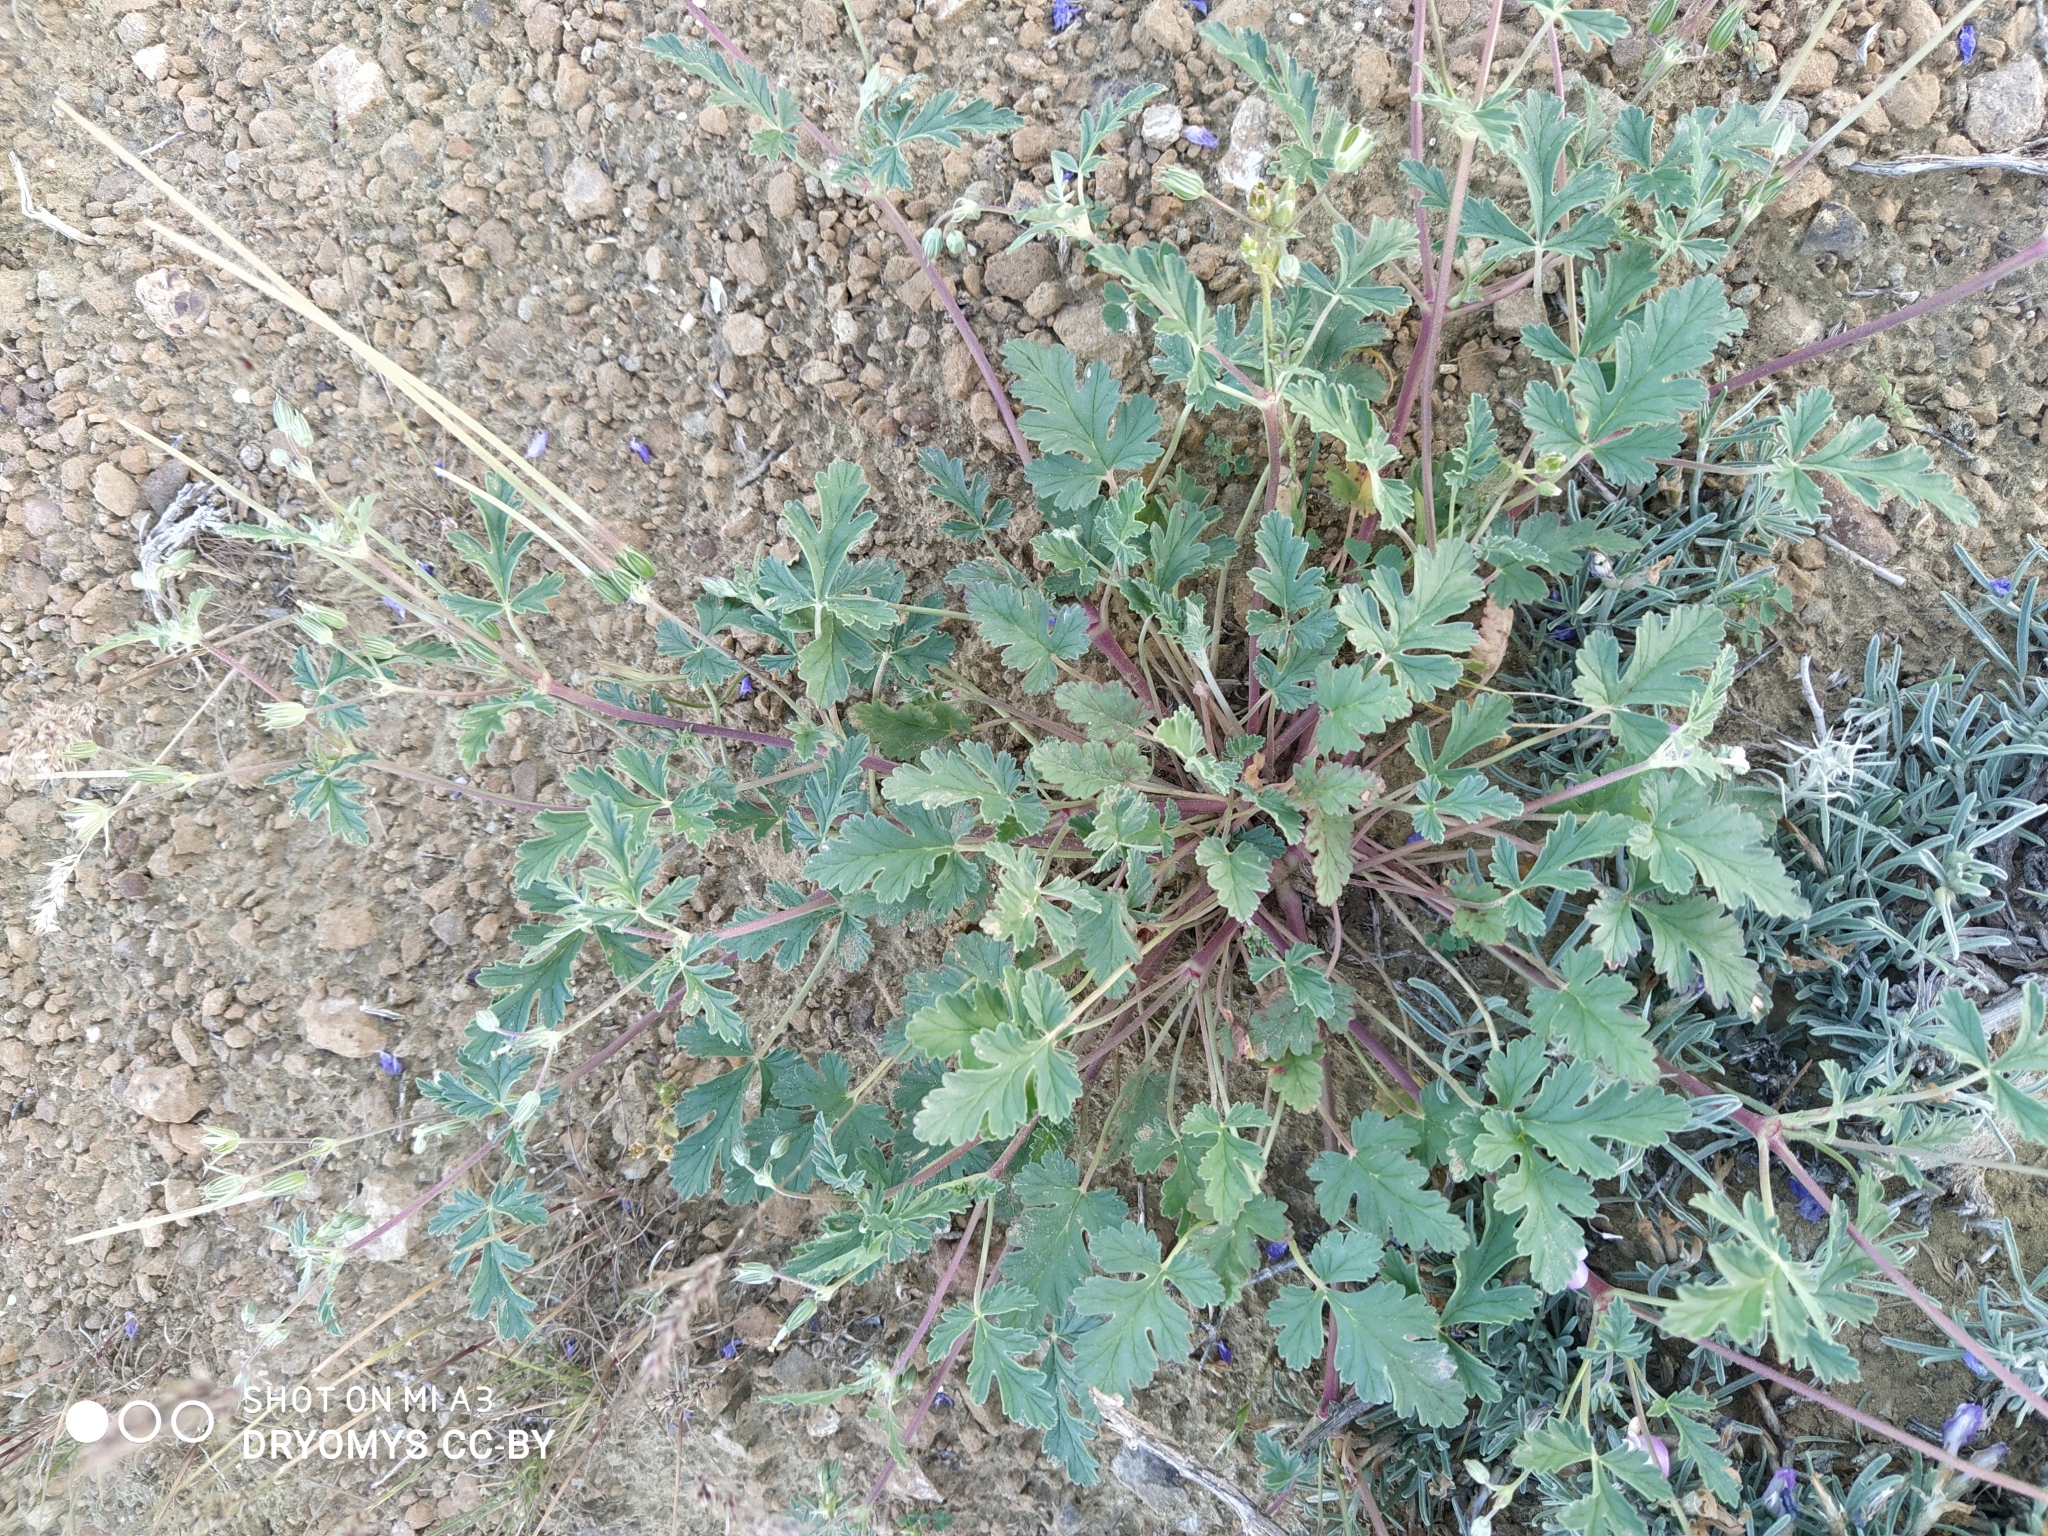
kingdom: Plantae
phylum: Tracheophyta
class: Magnoliopsida
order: Geraniales
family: Geraniaceae
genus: Erodium
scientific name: Erodium oxyrrhynchum
